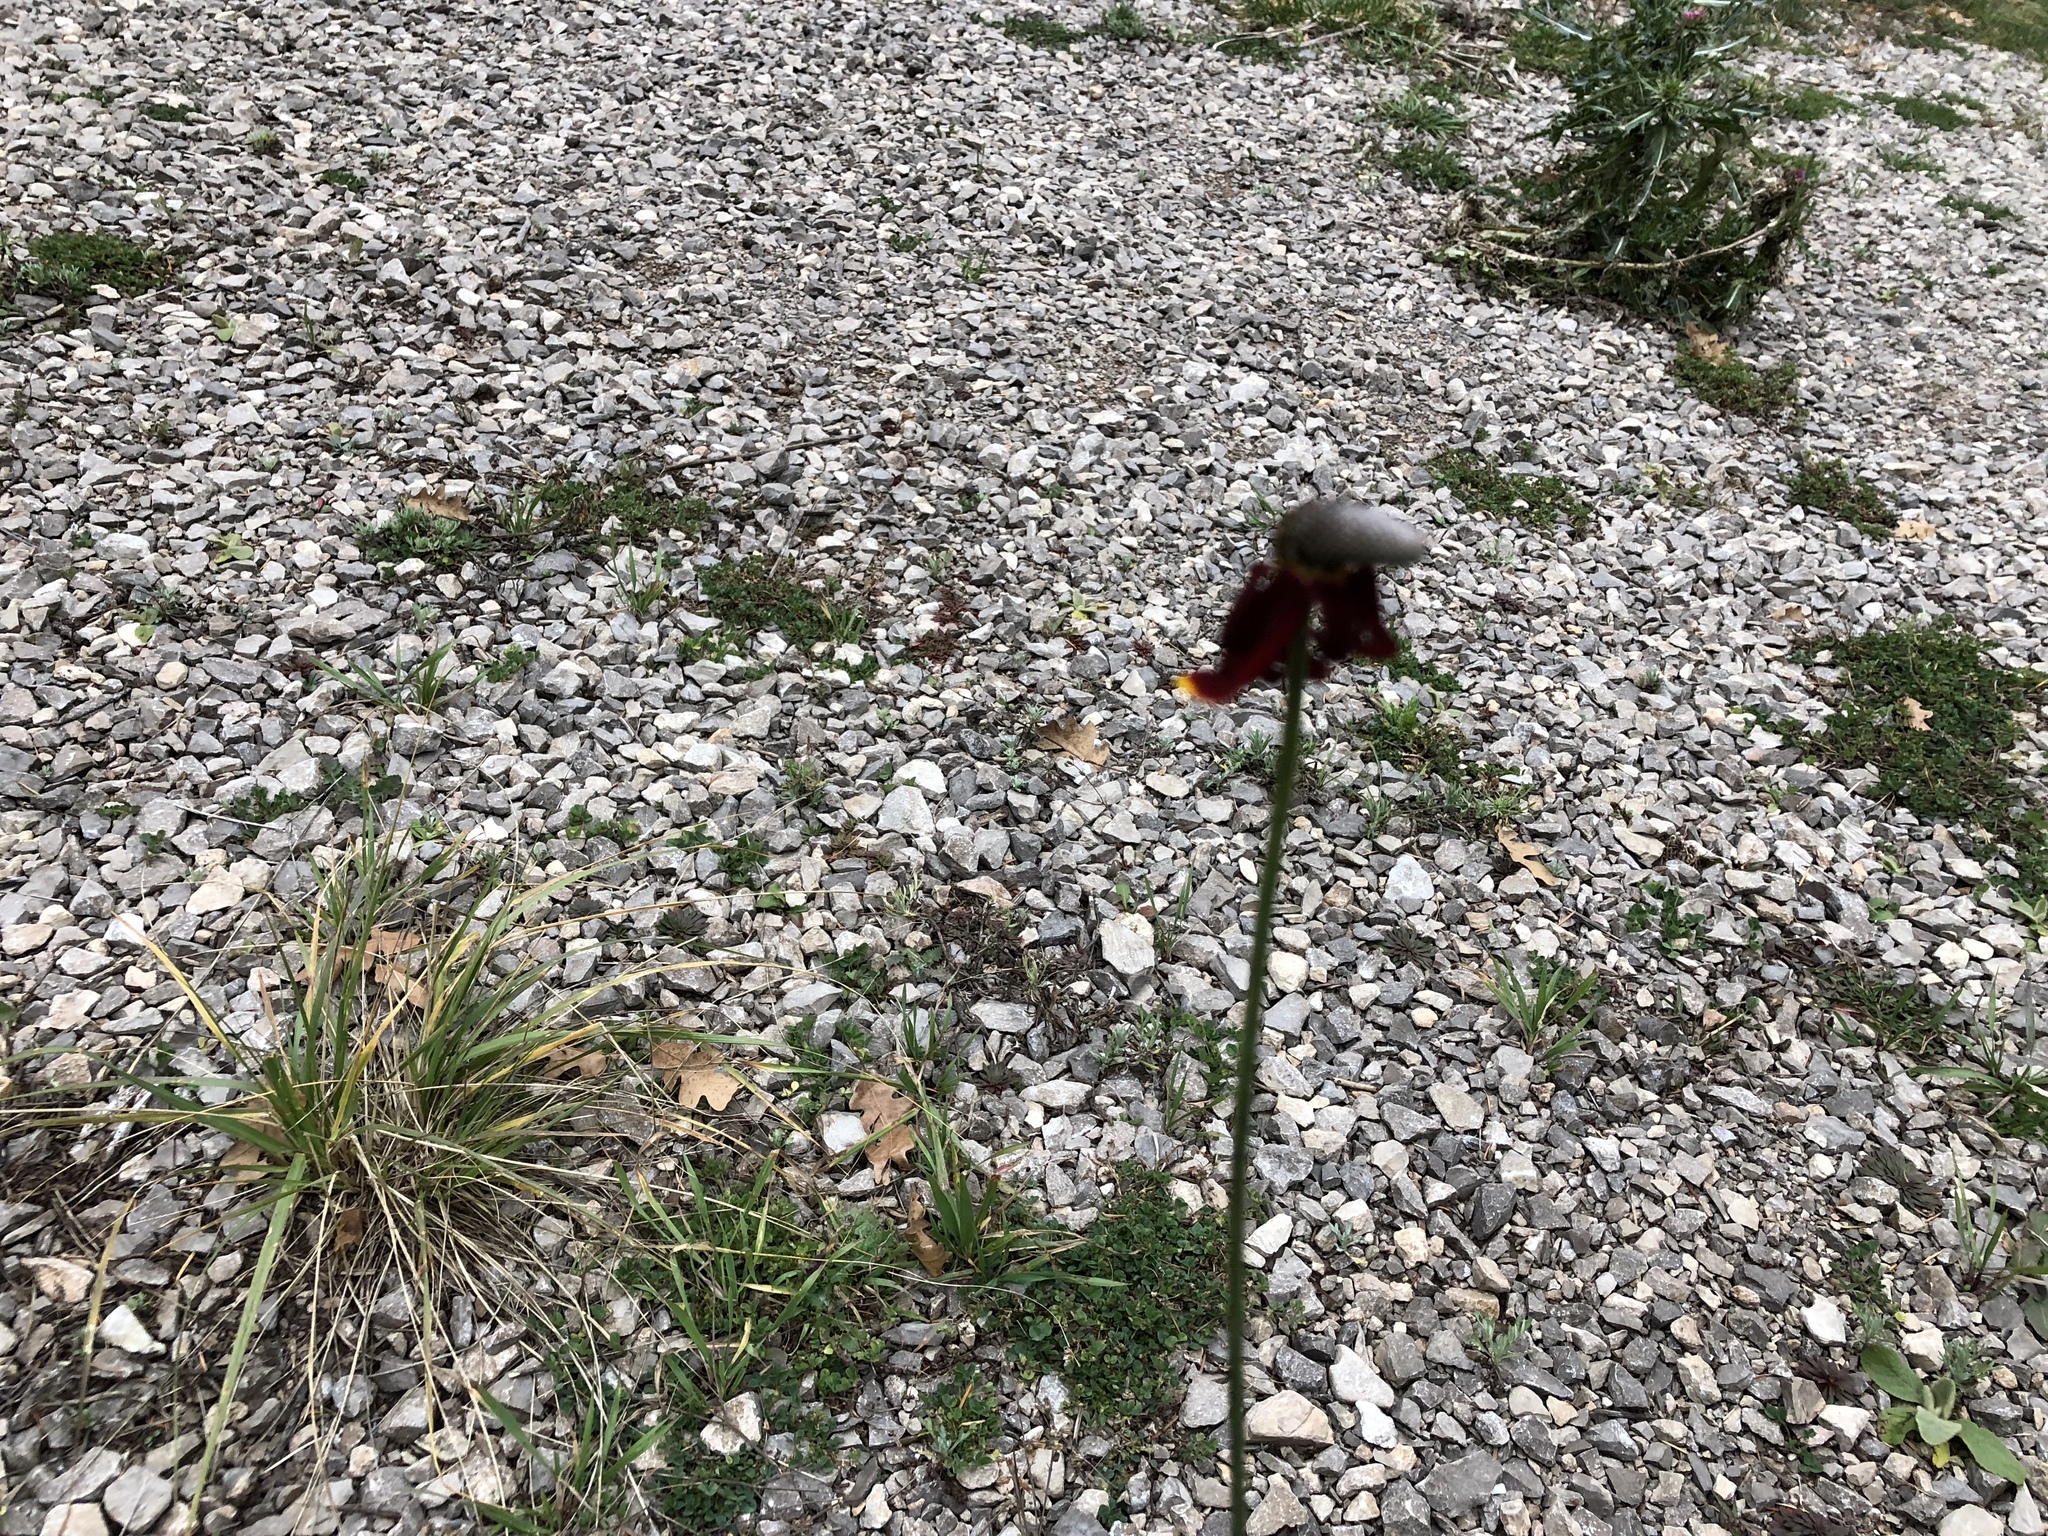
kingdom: Plantae
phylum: Tracheophyta
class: Magnoliopsida
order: Asterales
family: Asteraceae
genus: Ratibida
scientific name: Ratibida columnifera
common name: Prairie coneflower
